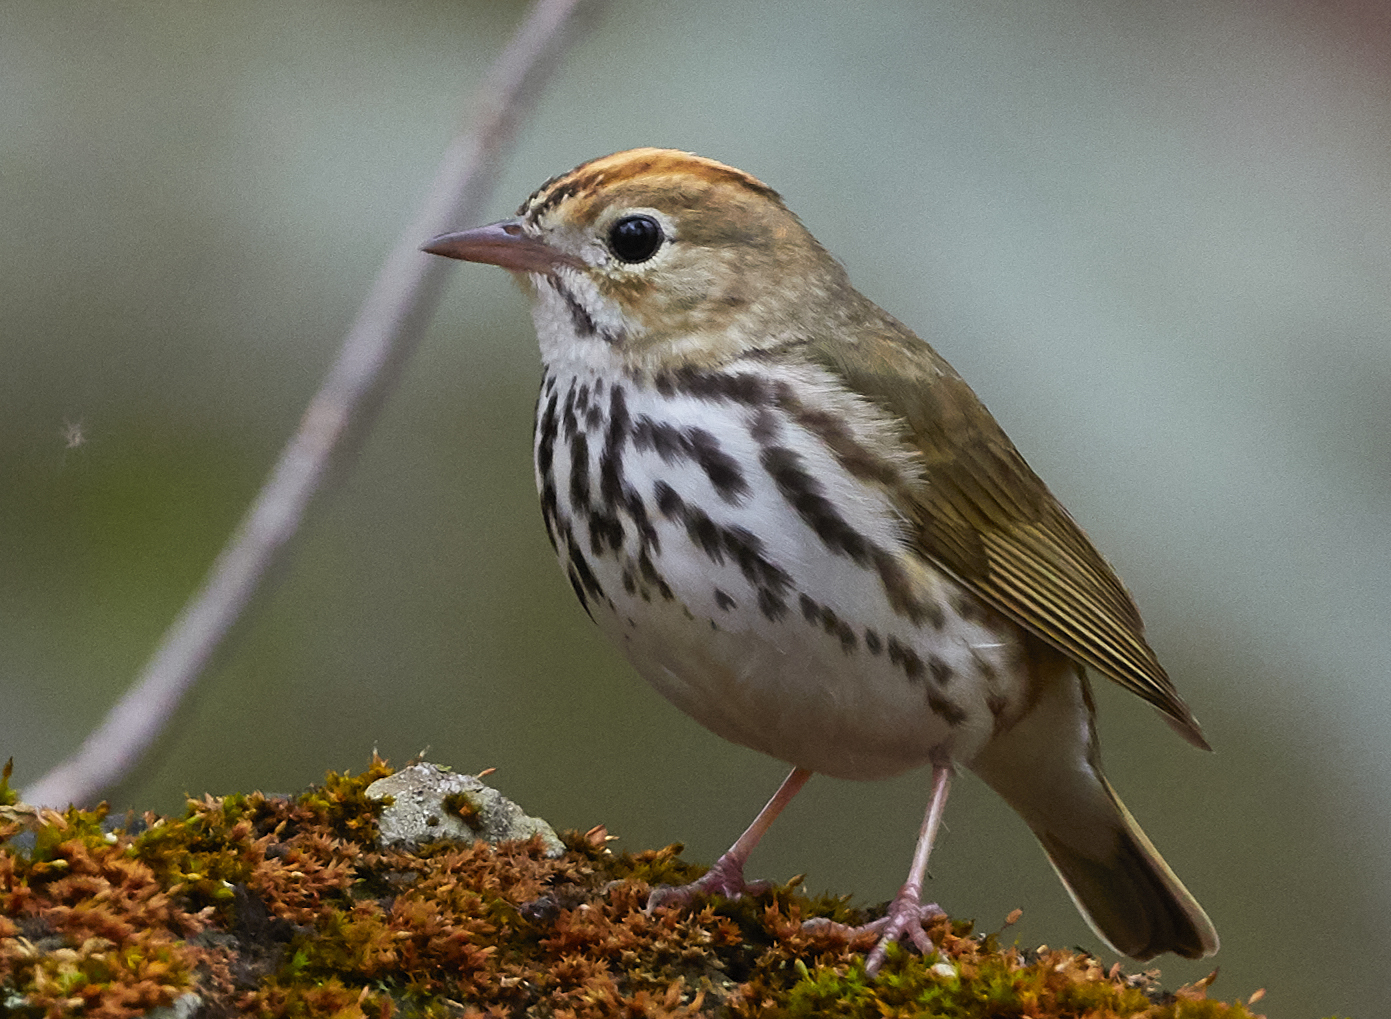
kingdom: Animalia
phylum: Chordata
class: Aves
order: Passeriformes
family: Parulidae
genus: Seiurus
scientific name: Seiurus aurocapilla
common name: Ovenbird
